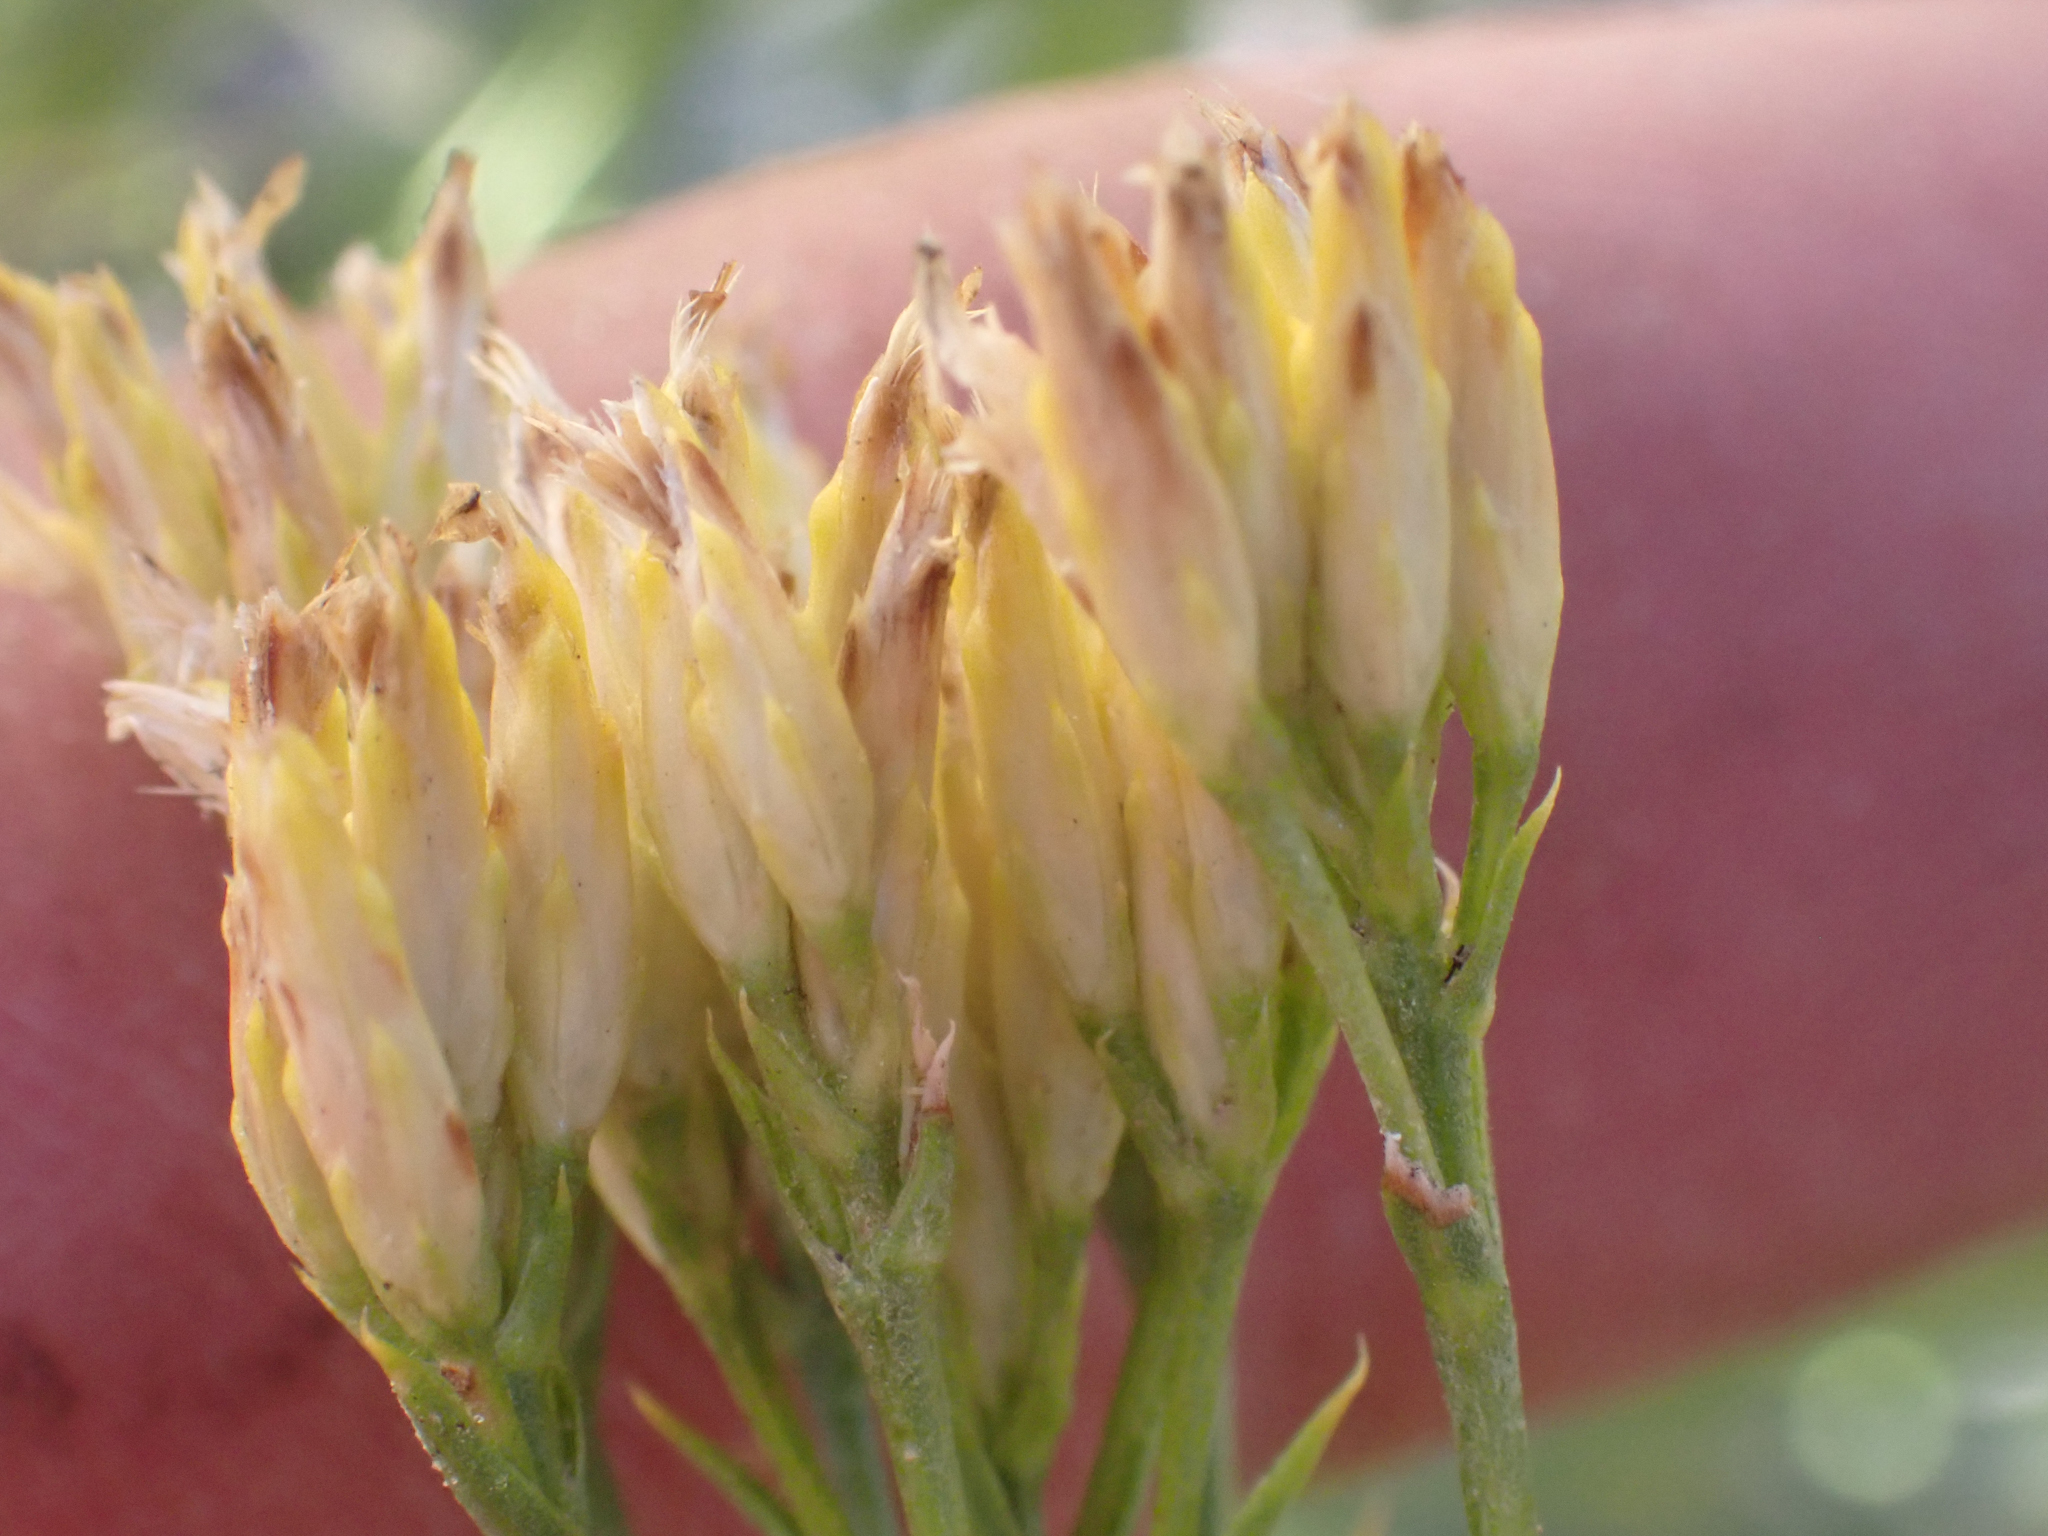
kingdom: Plantae
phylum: Tracheophyta
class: Magnoliopsida
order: Asterales
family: Asteraceae
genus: Petradoria
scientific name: Petradoria pumila
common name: Rock-goldenrod
